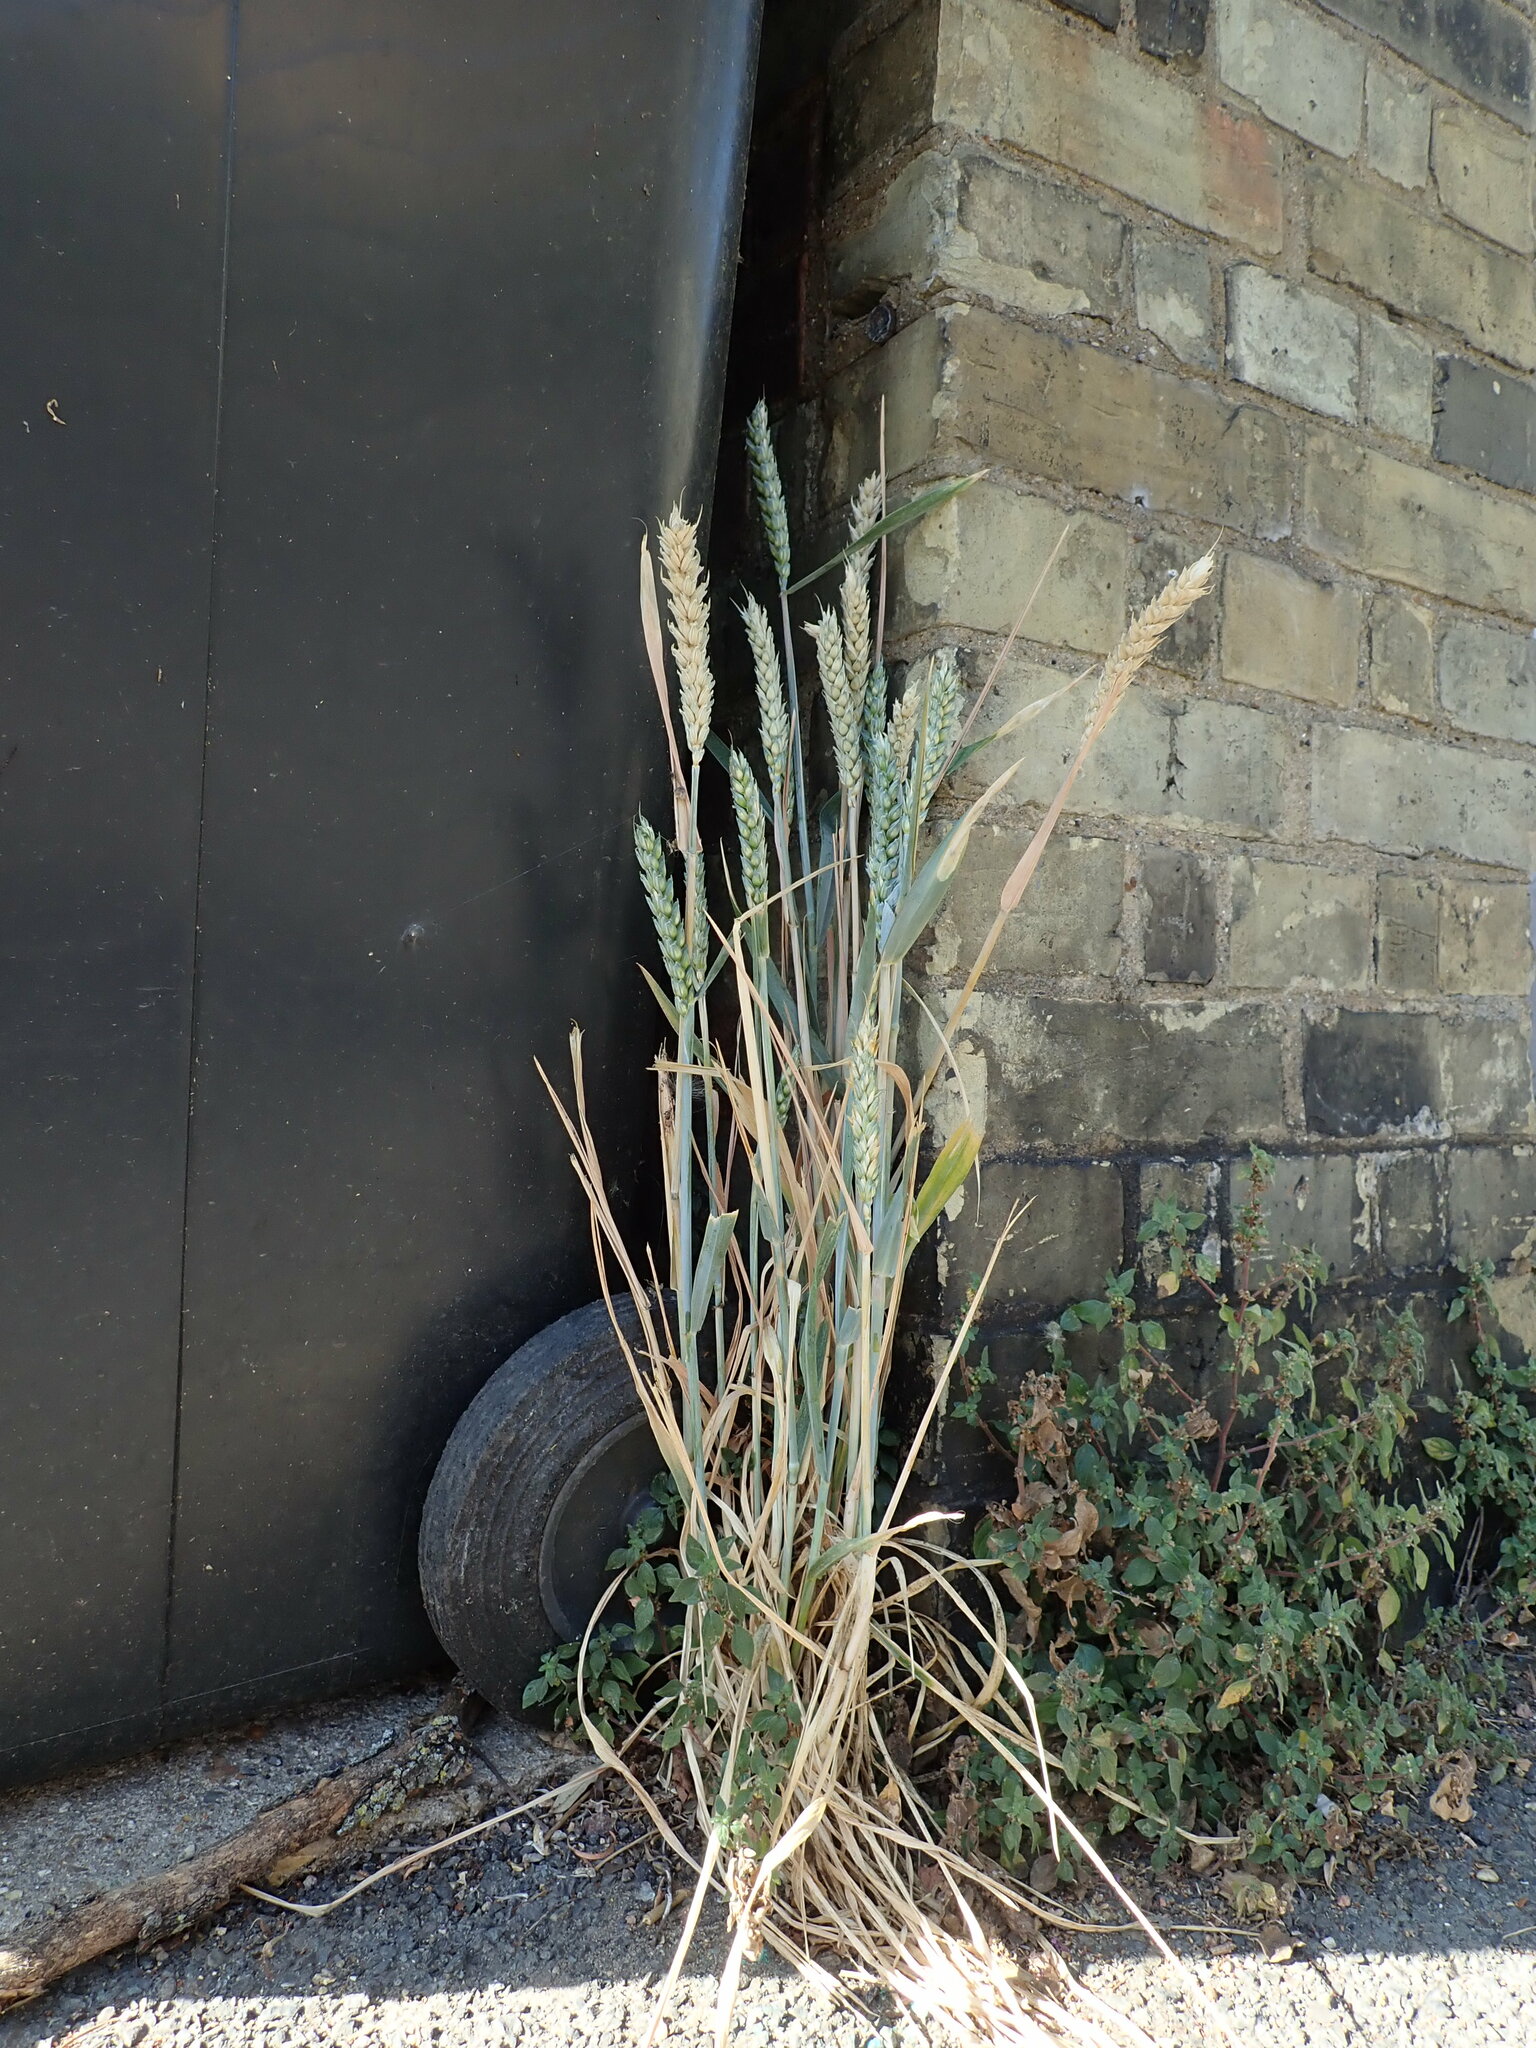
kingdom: Plantae
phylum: Tracheophyta
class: Liliopsida
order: Poales
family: Poaceae
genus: Triticum
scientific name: Triticum aestivum
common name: Common wheat
